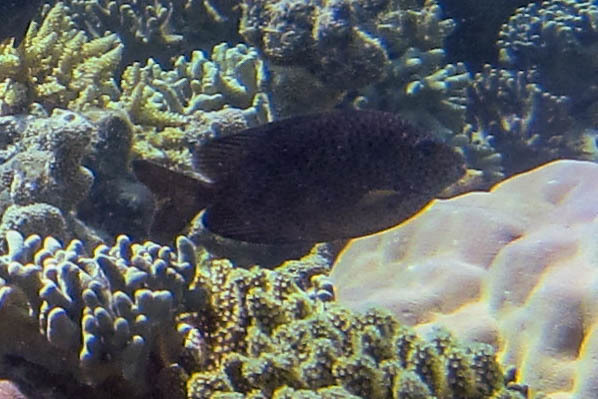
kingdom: Animalia
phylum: Chordata
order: Perciformes
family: Siganidae
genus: Siganus
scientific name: Siganus punctatus
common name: Gold-spotted rabbitfish
